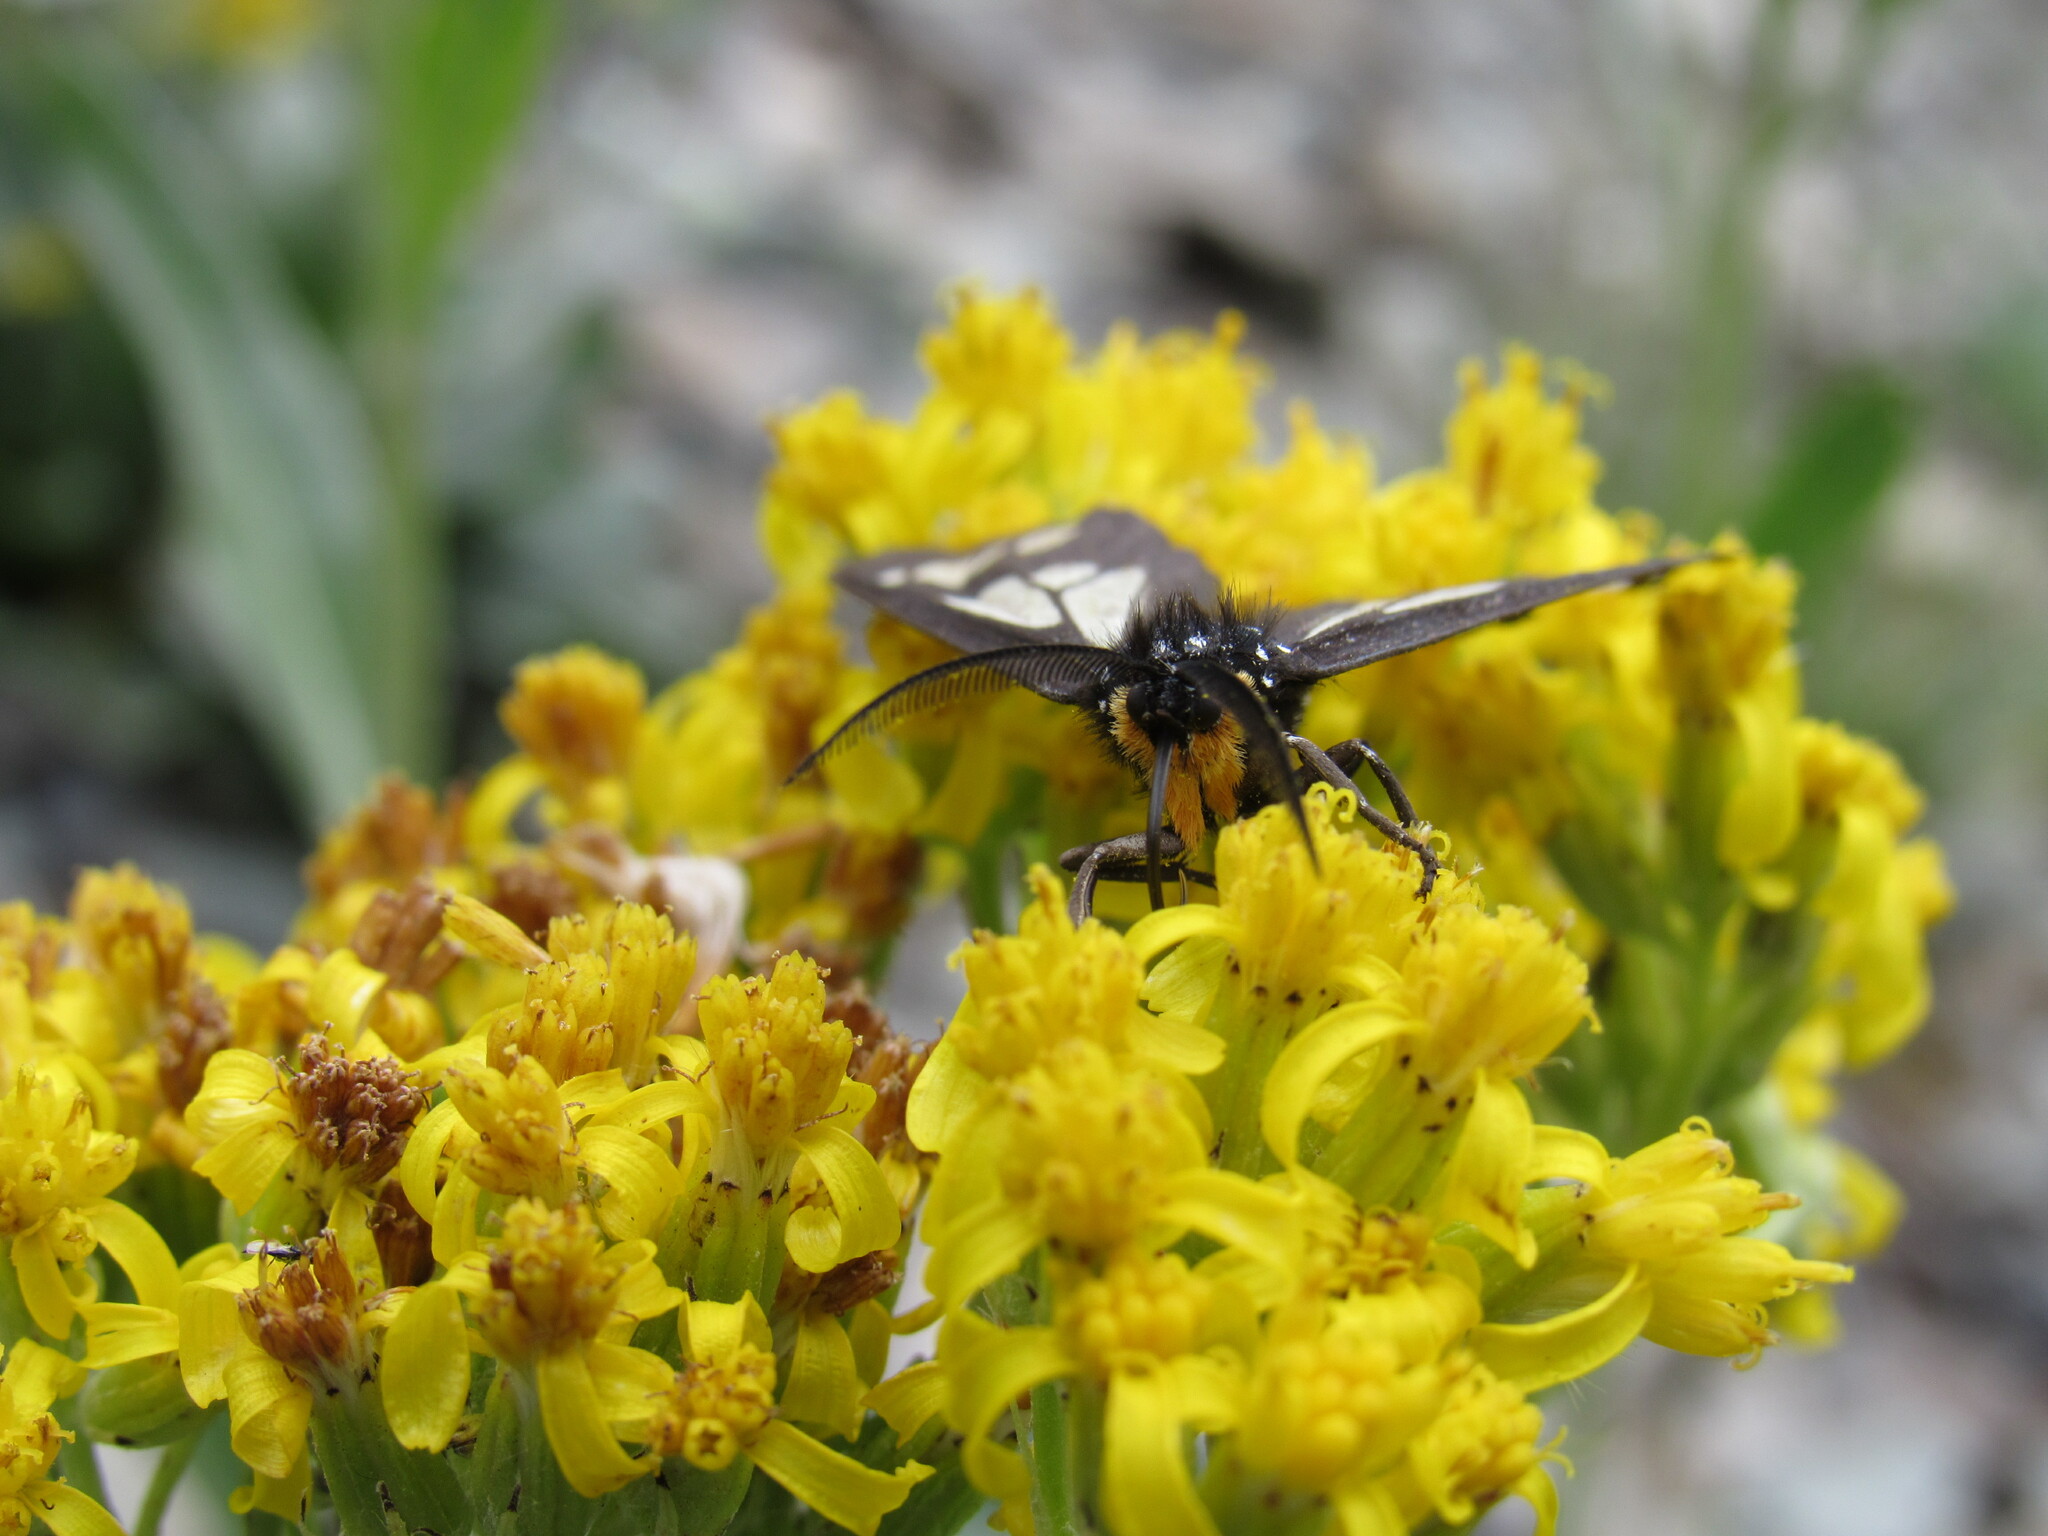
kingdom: Animalia
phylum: Arthropoda
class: Insecta
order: Lepidoptera
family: Erebidae
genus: Gnophaela
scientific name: Gnophaela vermiculata
